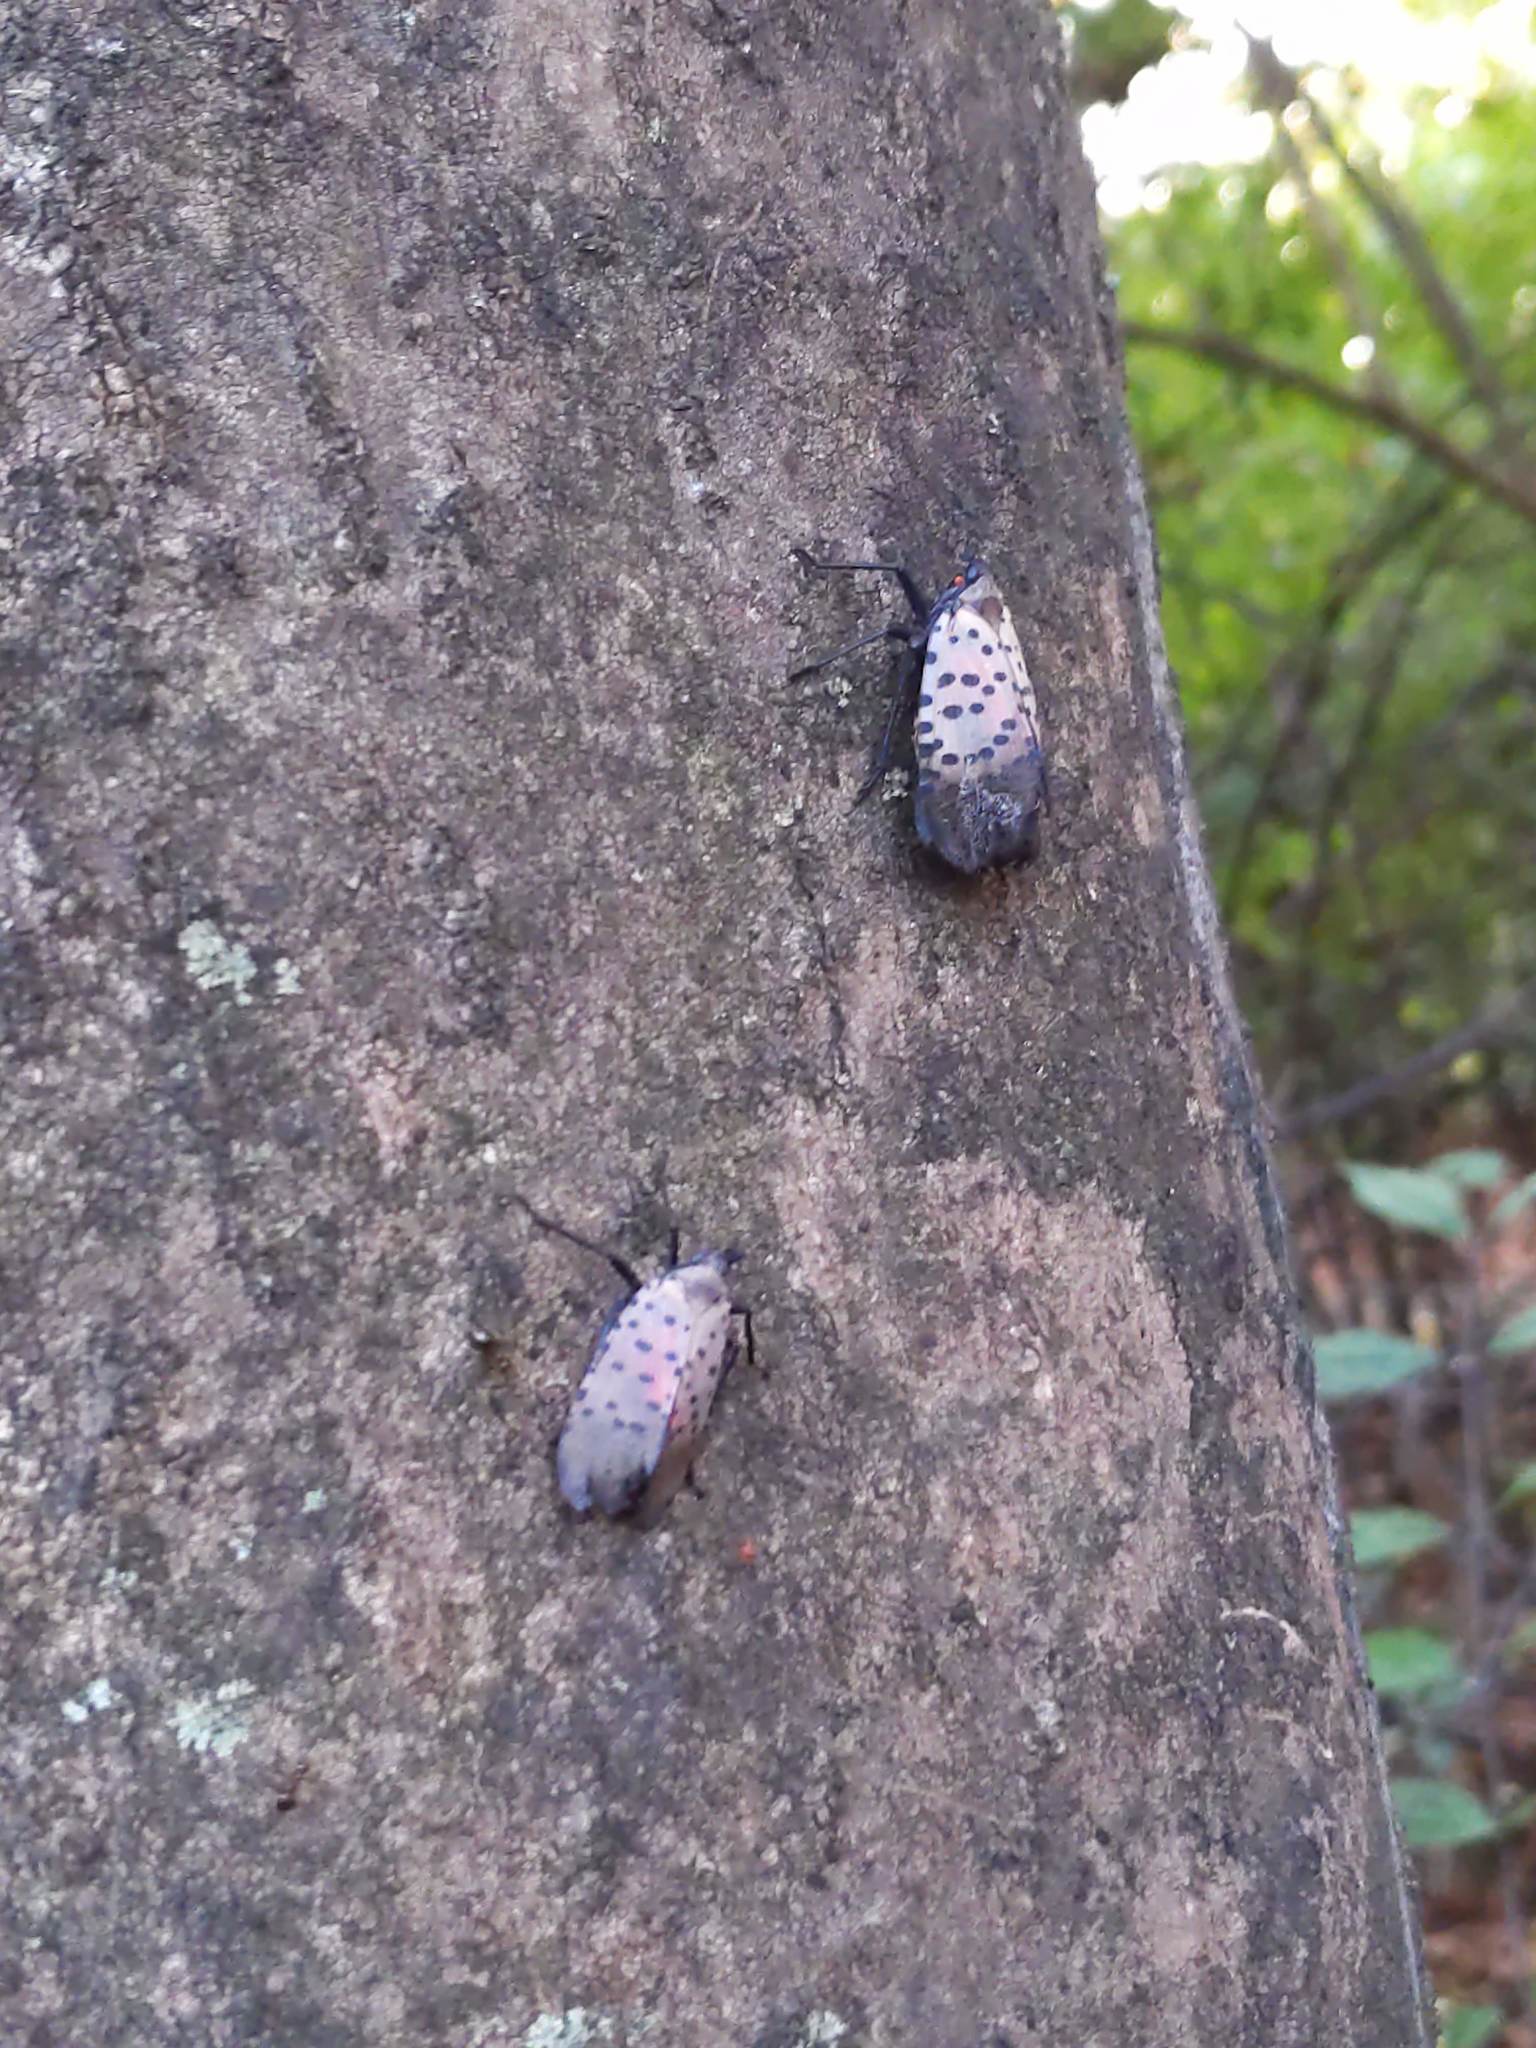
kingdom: Animalia
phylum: Arthropoda
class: Insecta
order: Hemiptera
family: Fulgoridae
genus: Lycorma
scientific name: Lycorma delicatula
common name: Spotted lanternfly
